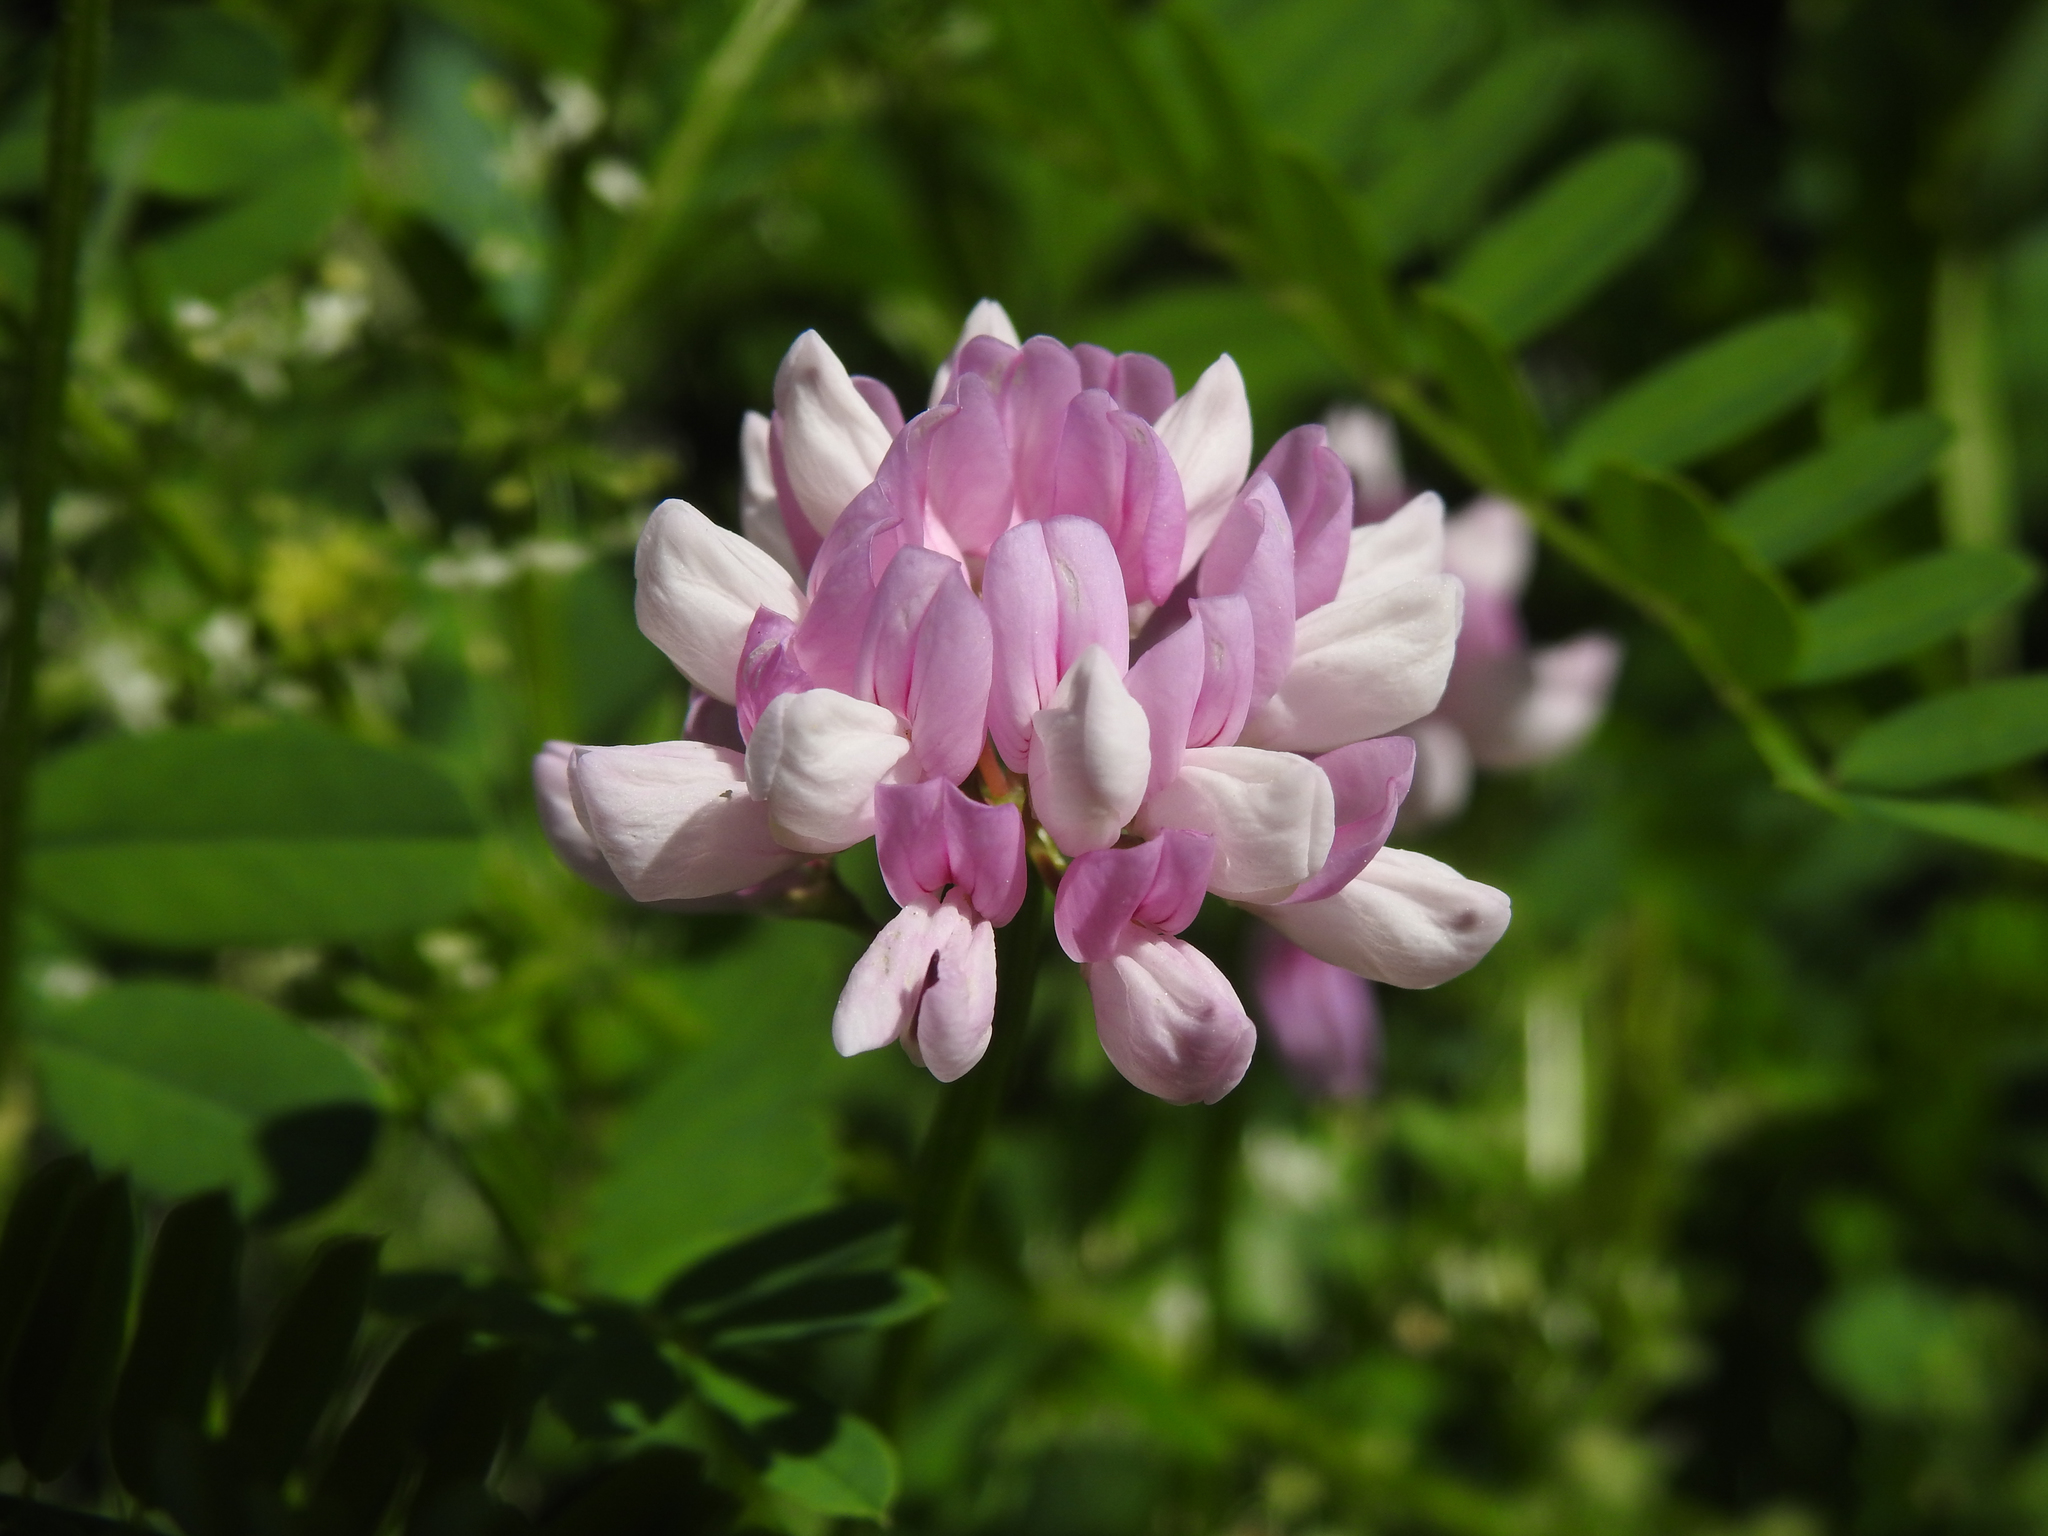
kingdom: Plantae
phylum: Tracheophyta
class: Magnoliopsida
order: Fabales
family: Fabaceae
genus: Coronilla
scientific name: Coronilla varia
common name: Crownvetch
